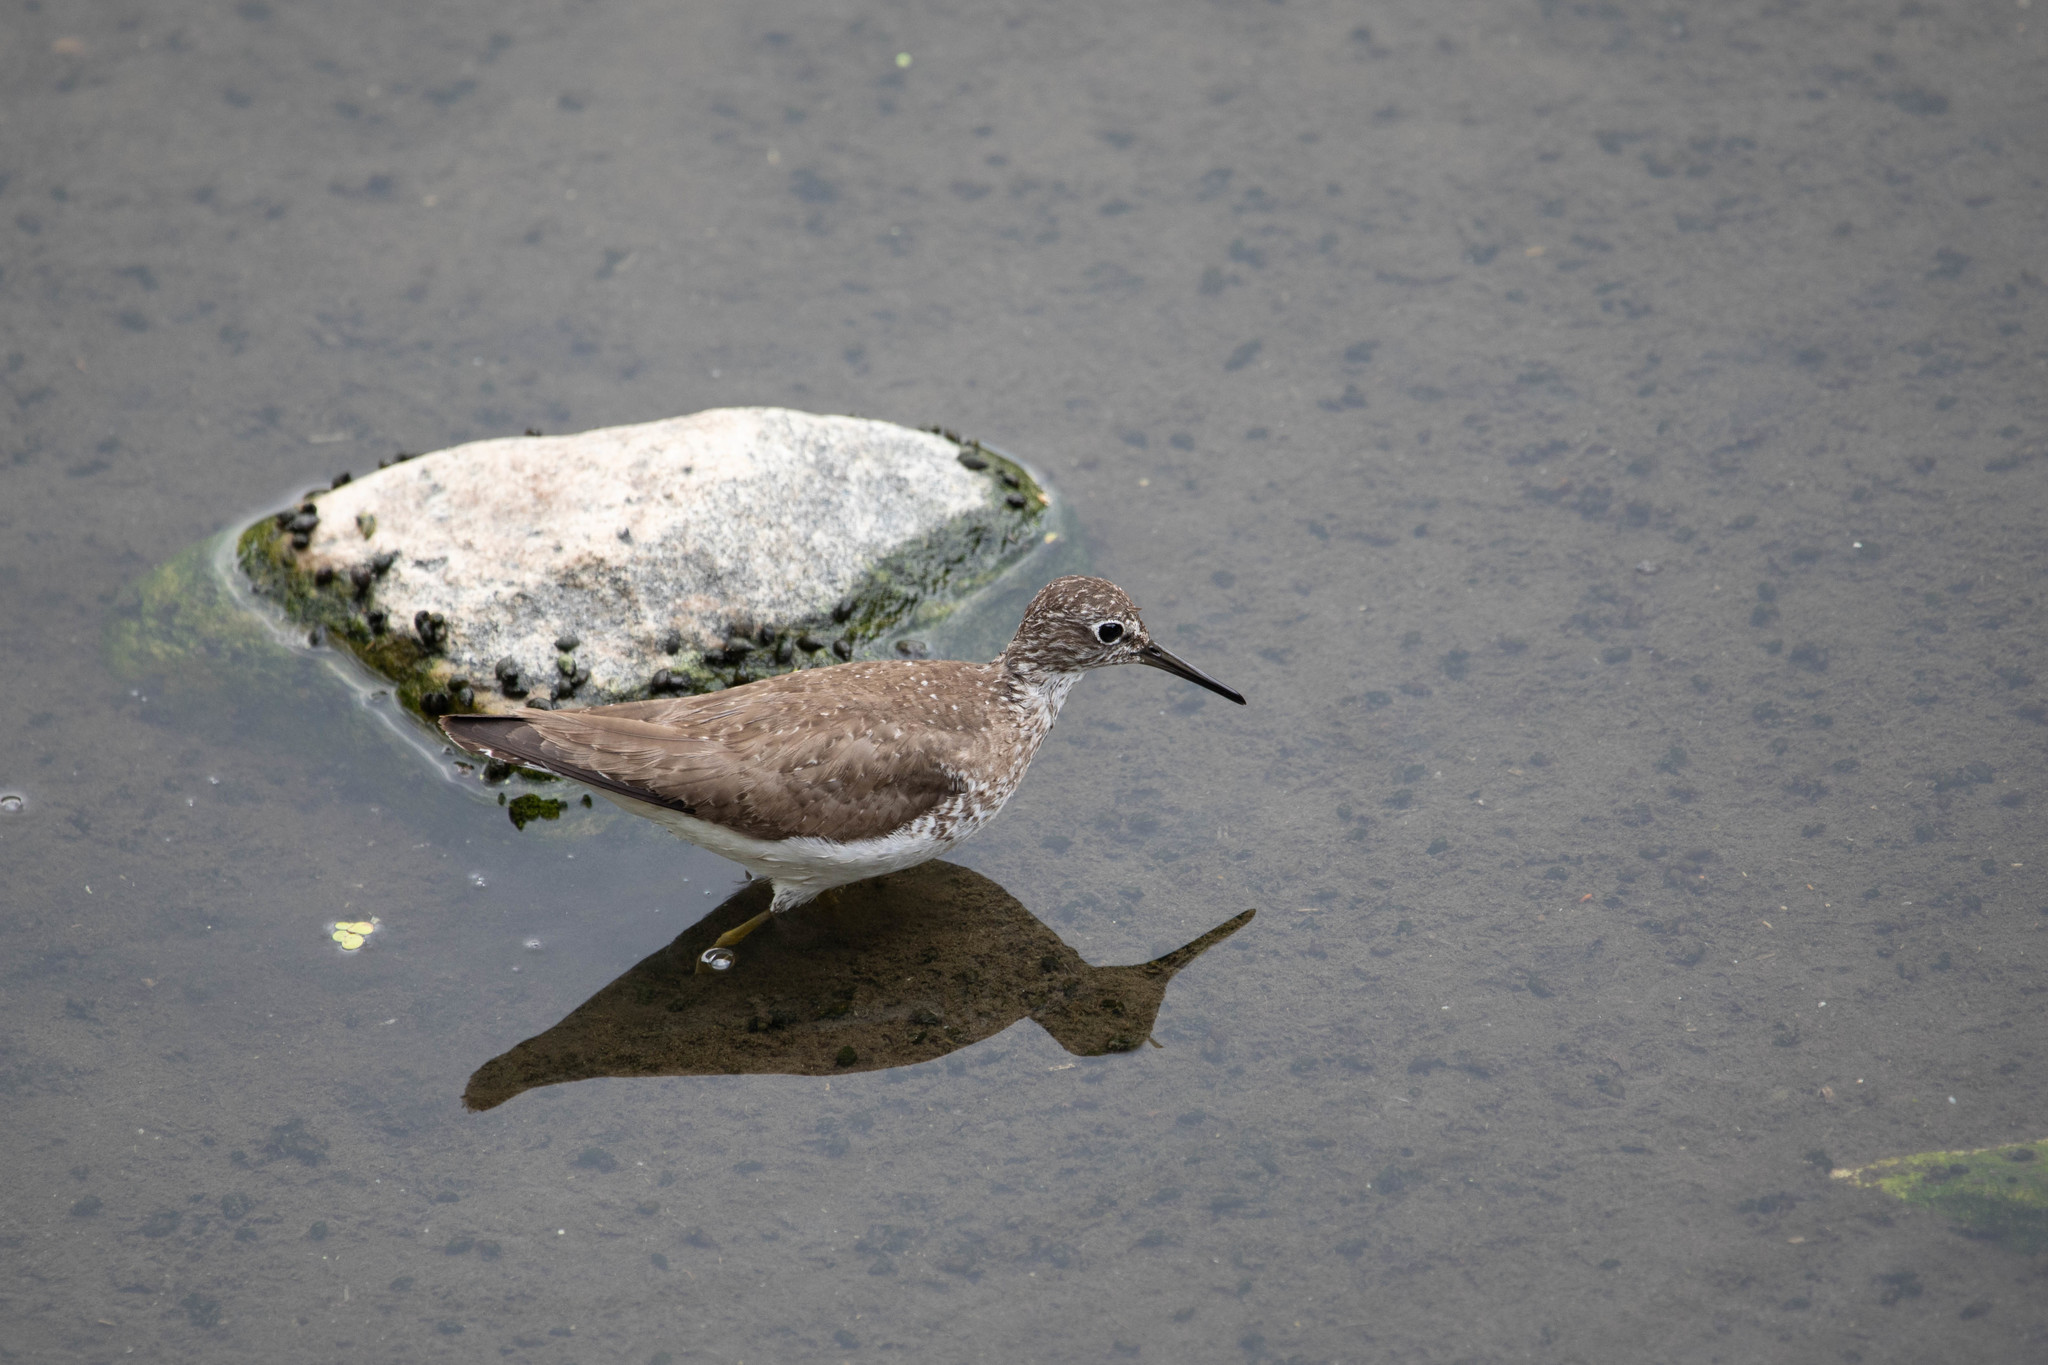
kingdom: Animalia
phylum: Chordata
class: Aves
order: Charadriiformes
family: Scolopacidae
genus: Tringa
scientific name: Tringa solitaria
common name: Solitary sandpiper
